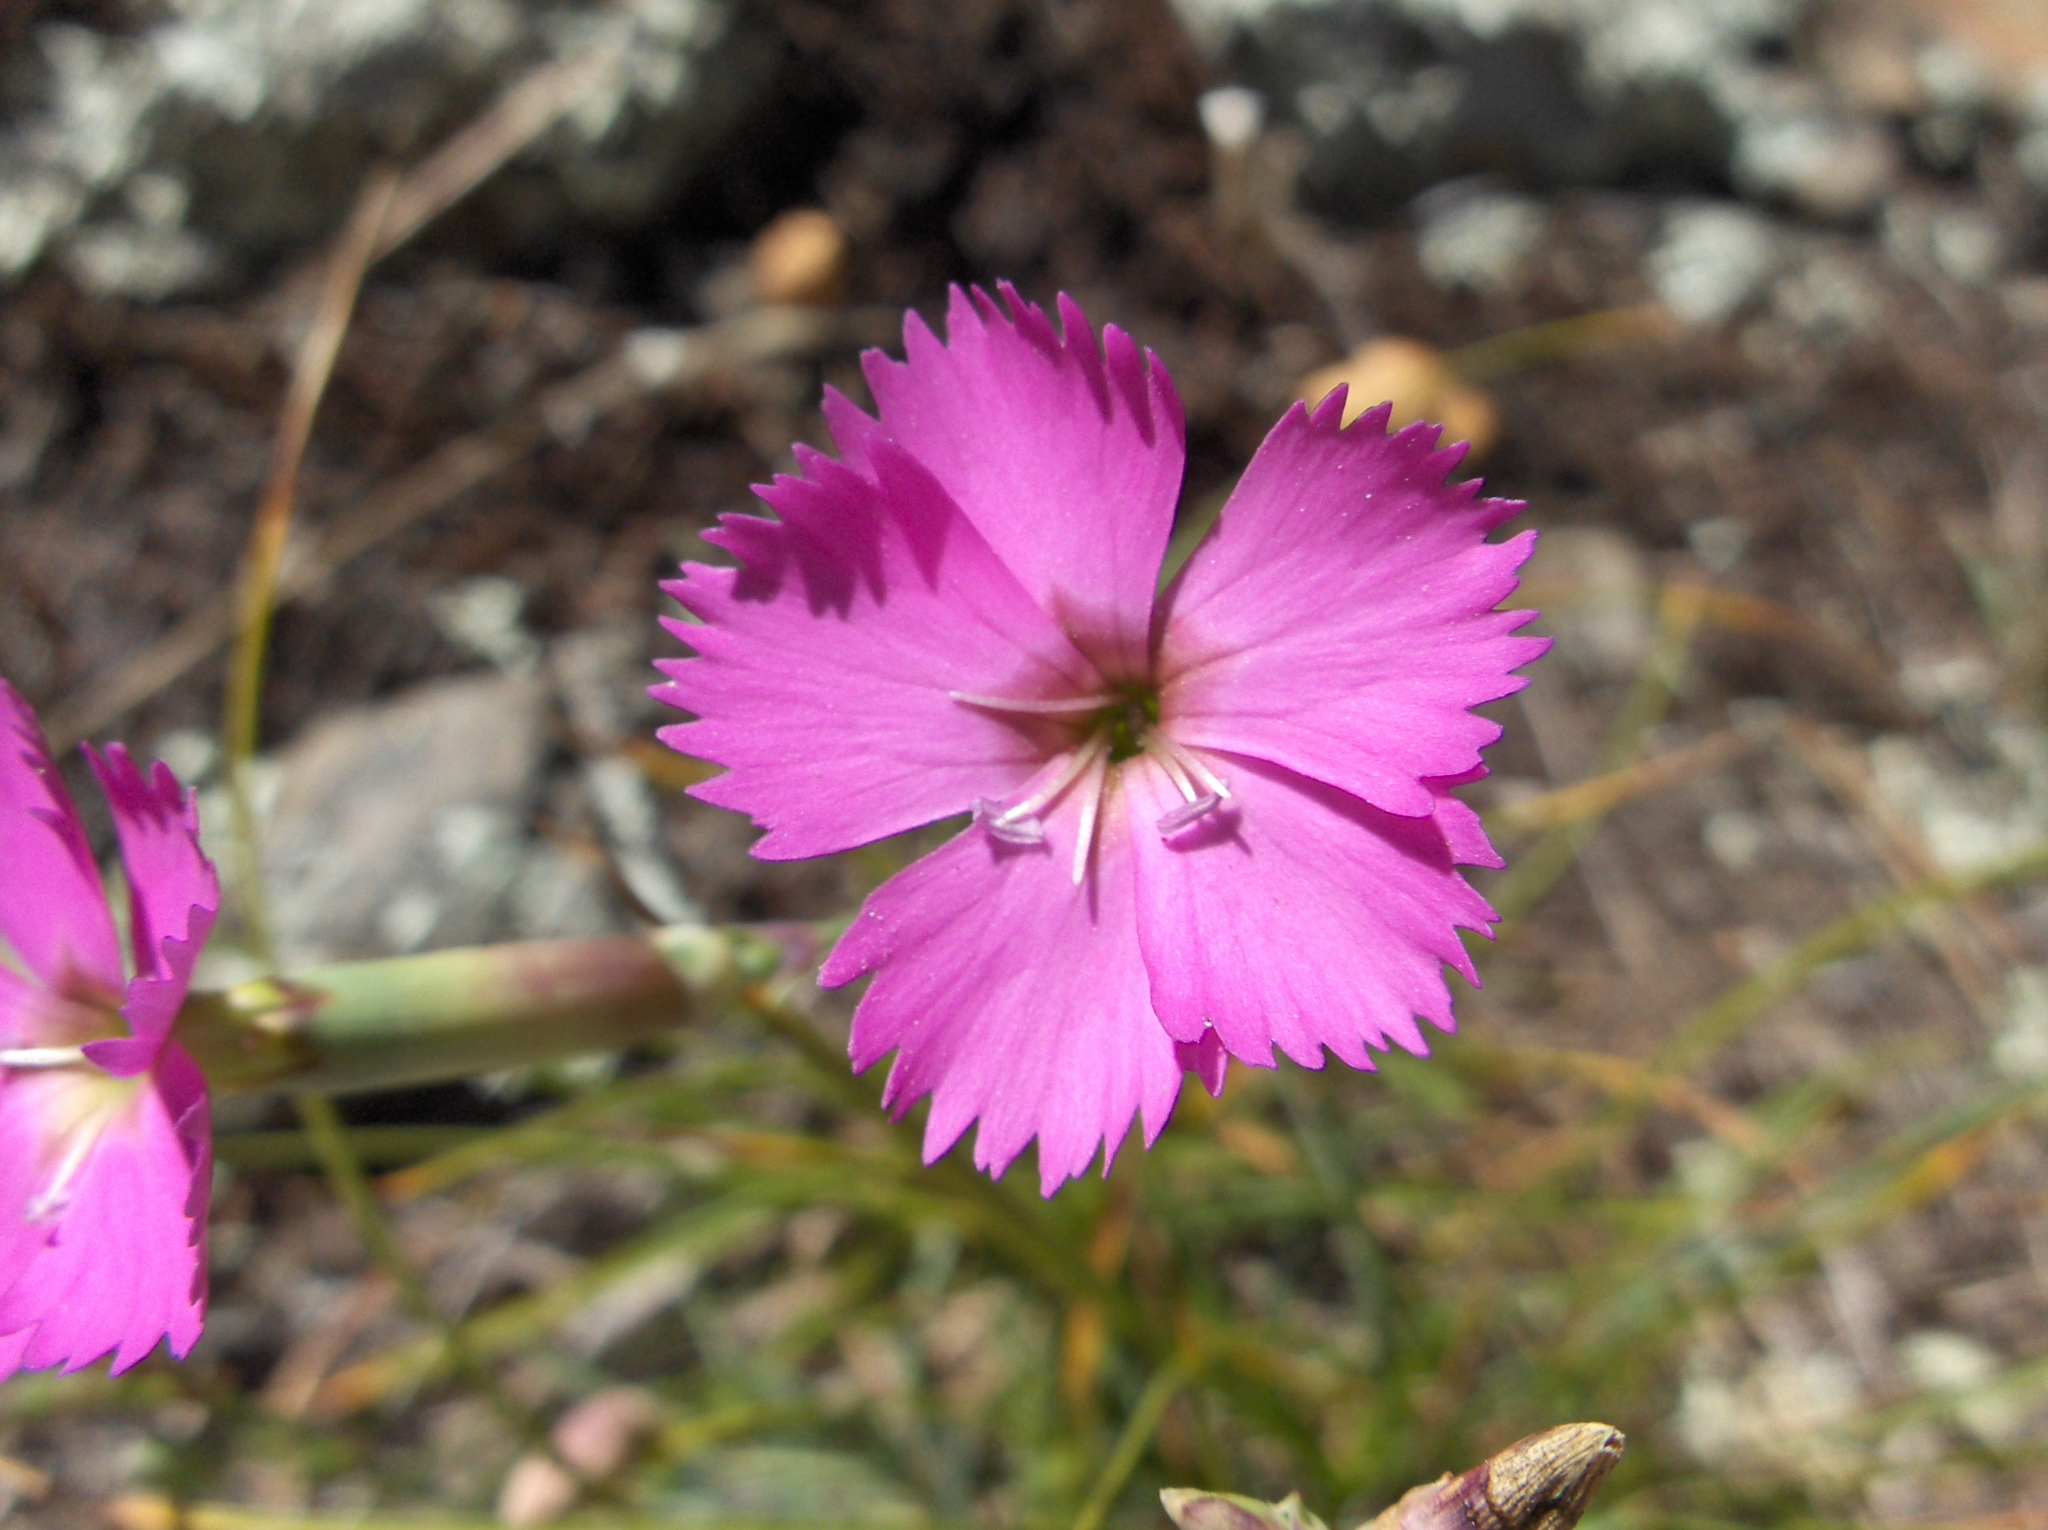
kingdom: Plantae
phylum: Tracheophyta
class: Magnoliopsida
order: Caryophyllales
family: Caryophyllaceae
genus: Dianthus
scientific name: Dianthus sylvestris
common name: Wood pink
